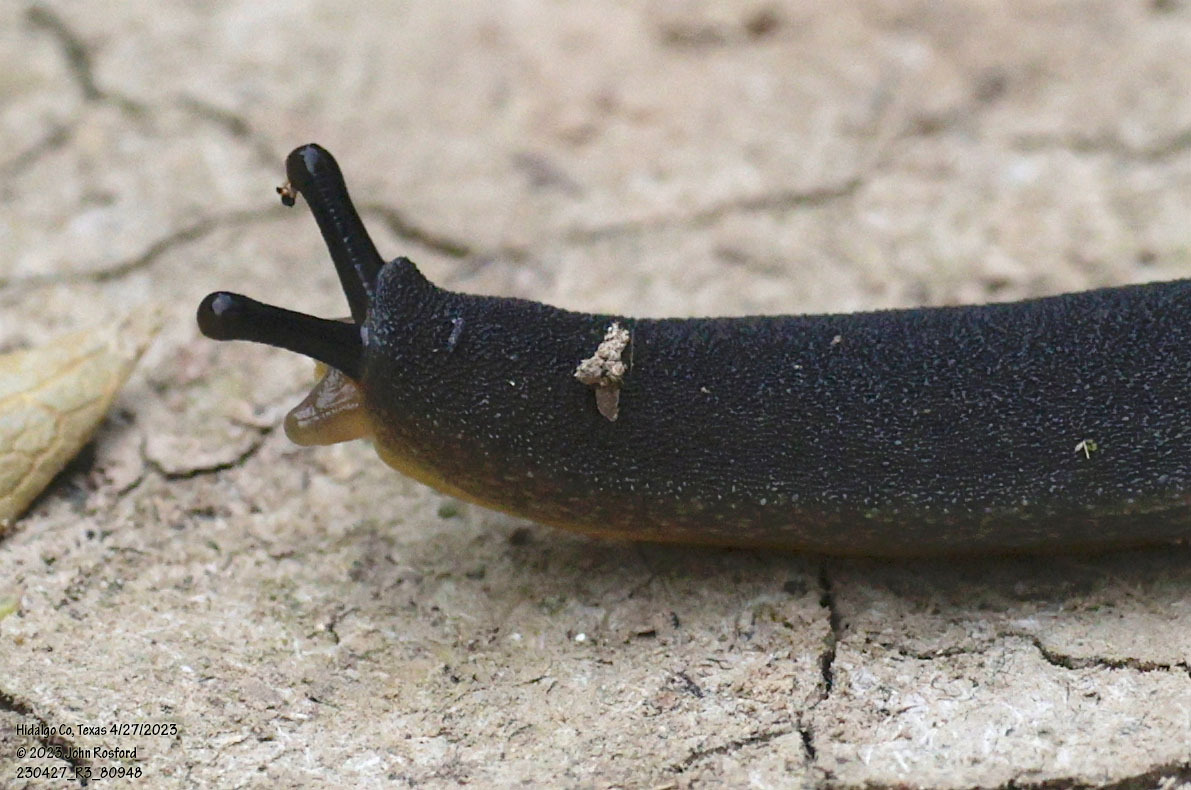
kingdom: Animalia
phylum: Mollusca
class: Gastropoda
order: Systellommatophora
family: Veronicellidae
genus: Belocaulus
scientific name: Belocaulus angustipes
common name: Black velvet leatherleaf slug
